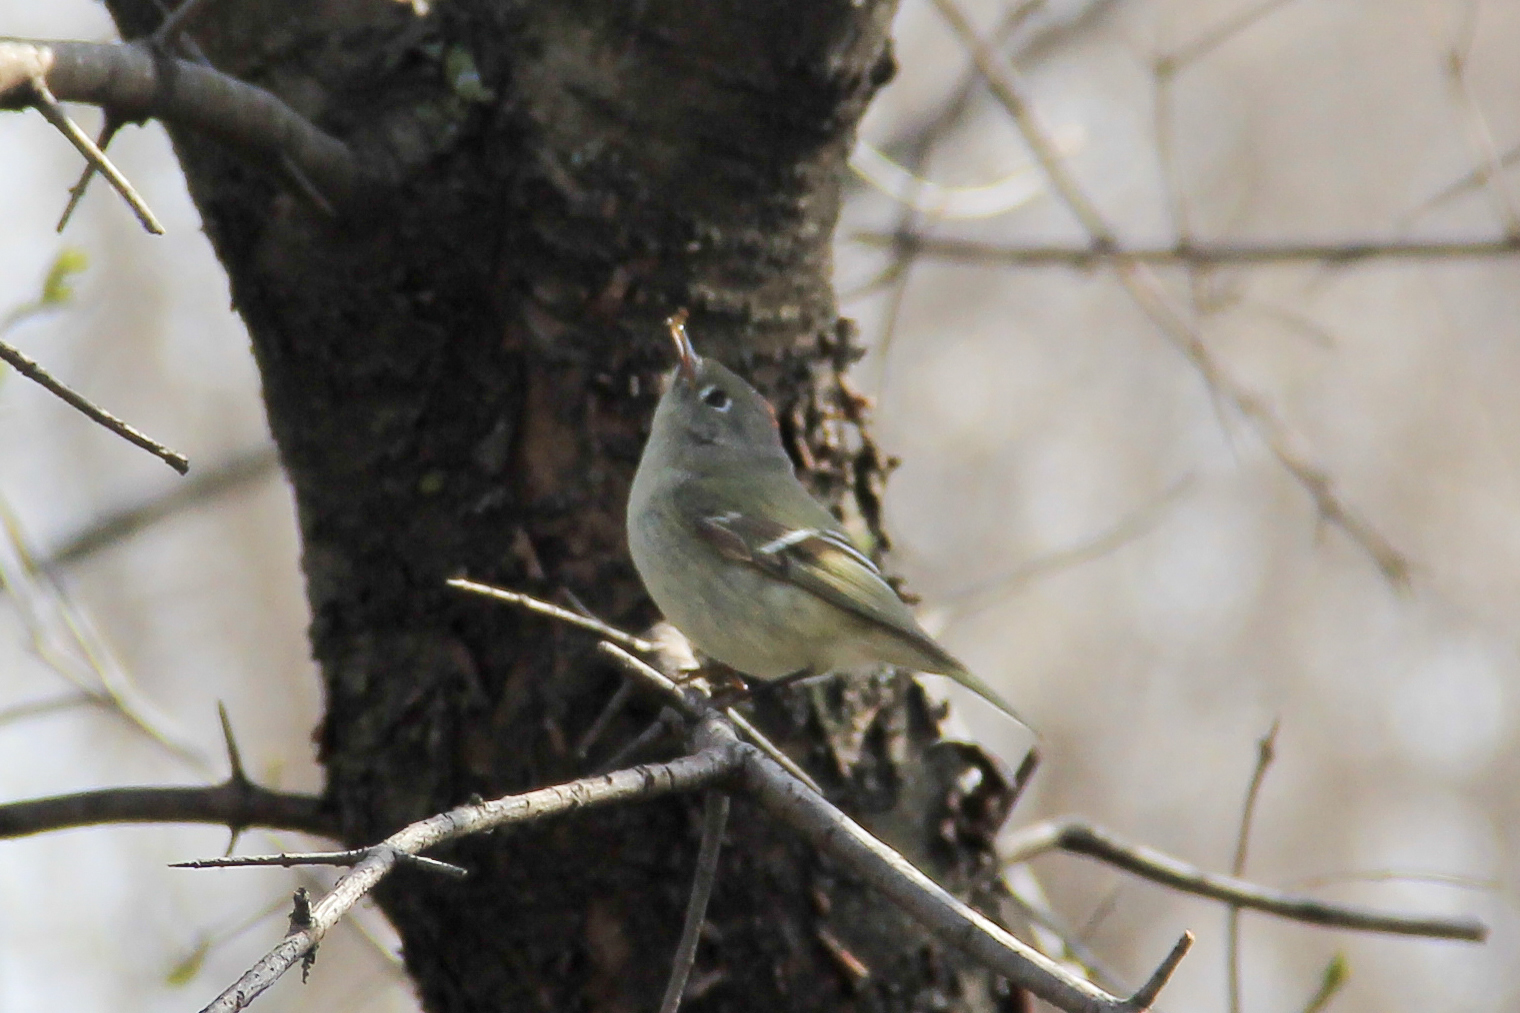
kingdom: Animalia
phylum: Chordata
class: Aves
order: Passeriformes
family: Regulidae
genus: Regulus
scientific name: Regulus calendula
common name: Ruby-crowned kinglet
